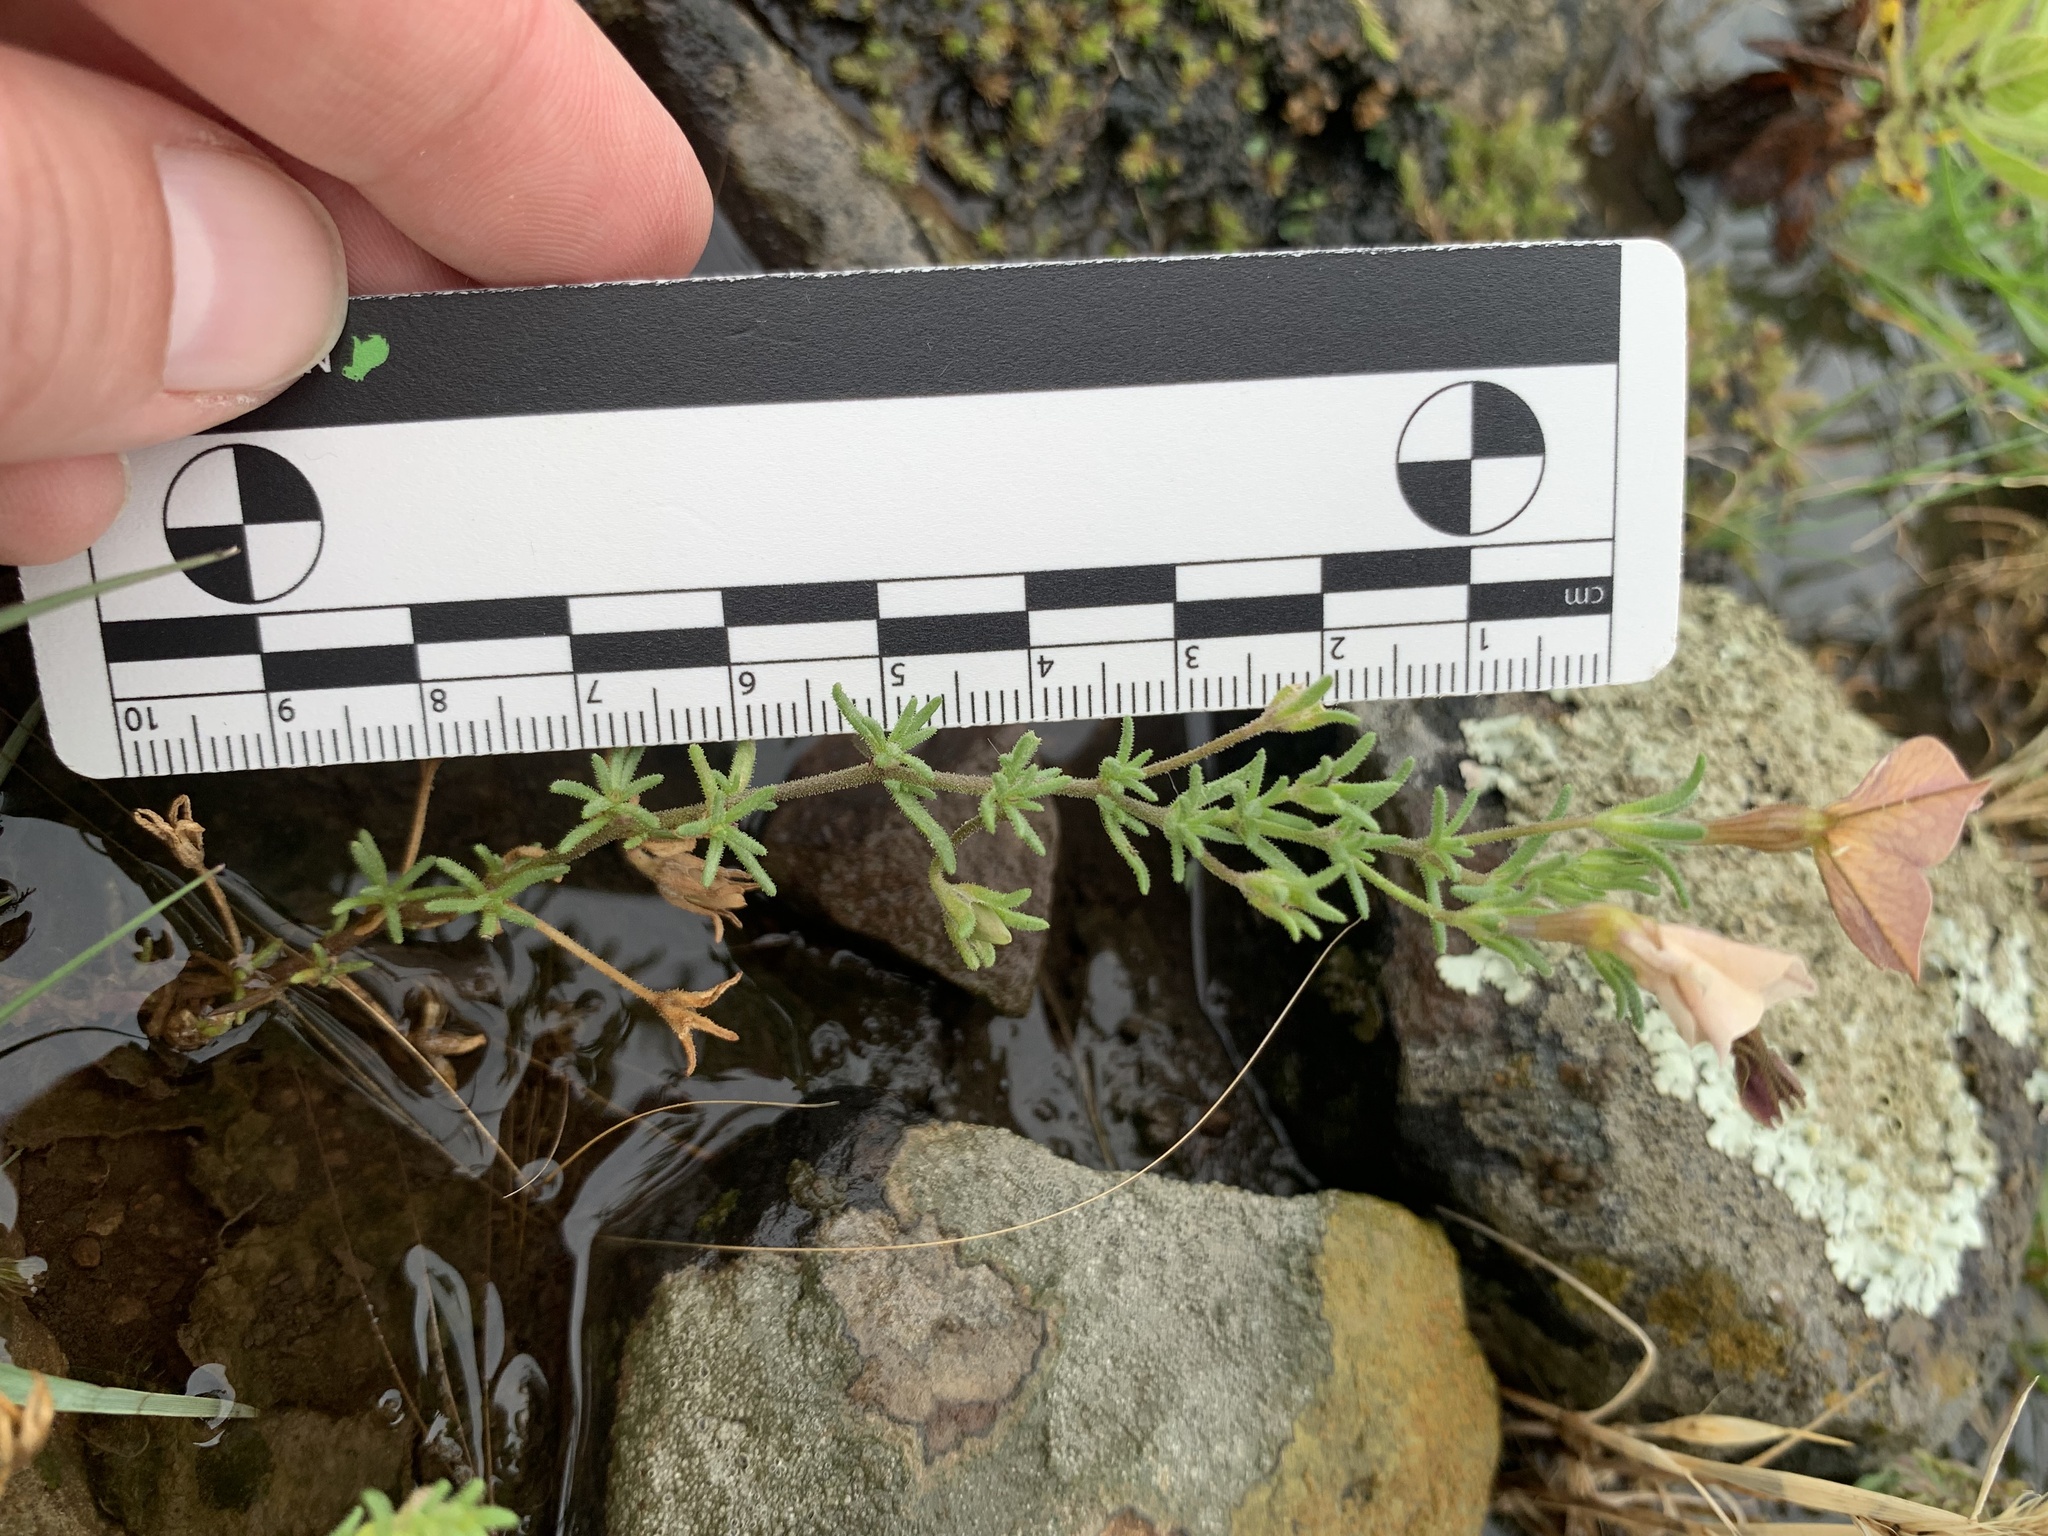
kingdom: Plantae
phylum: Tracheophyta
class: Magnoliopsida
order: Solanales
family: Solanaceae
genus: Calibrachoa
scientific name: Calibrachoa pygmea
